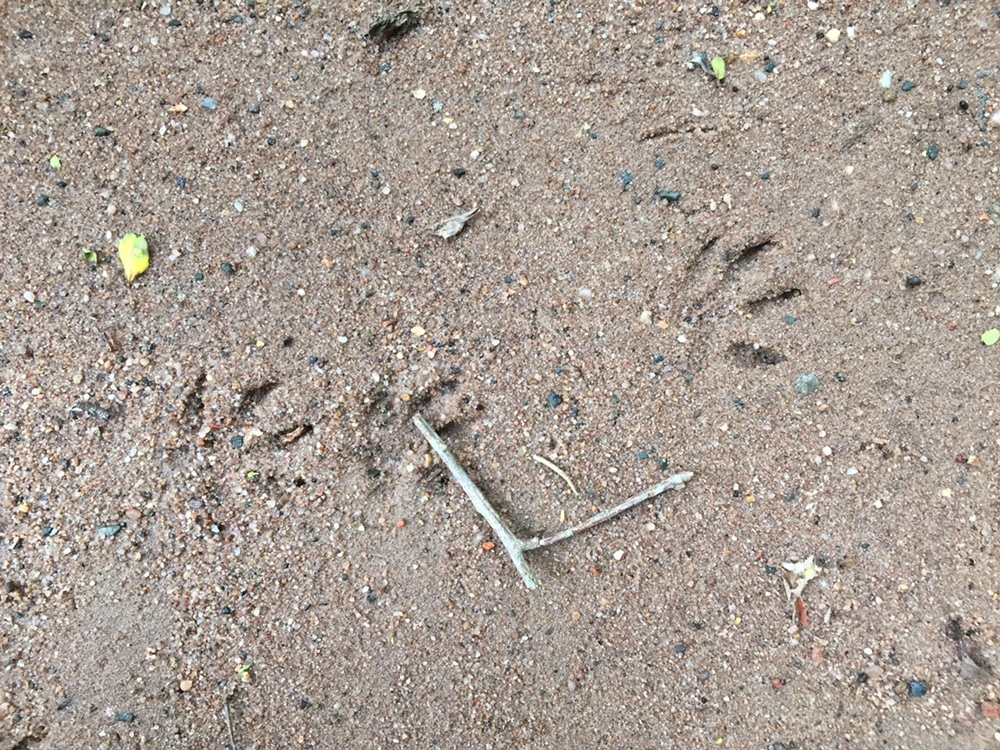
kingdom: Animalia
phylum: Chordata
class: Mammalia
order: Carnivora
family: Herpestidae
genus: Atilax
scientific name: Atilax paludinosus
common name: Marsh mongoose
